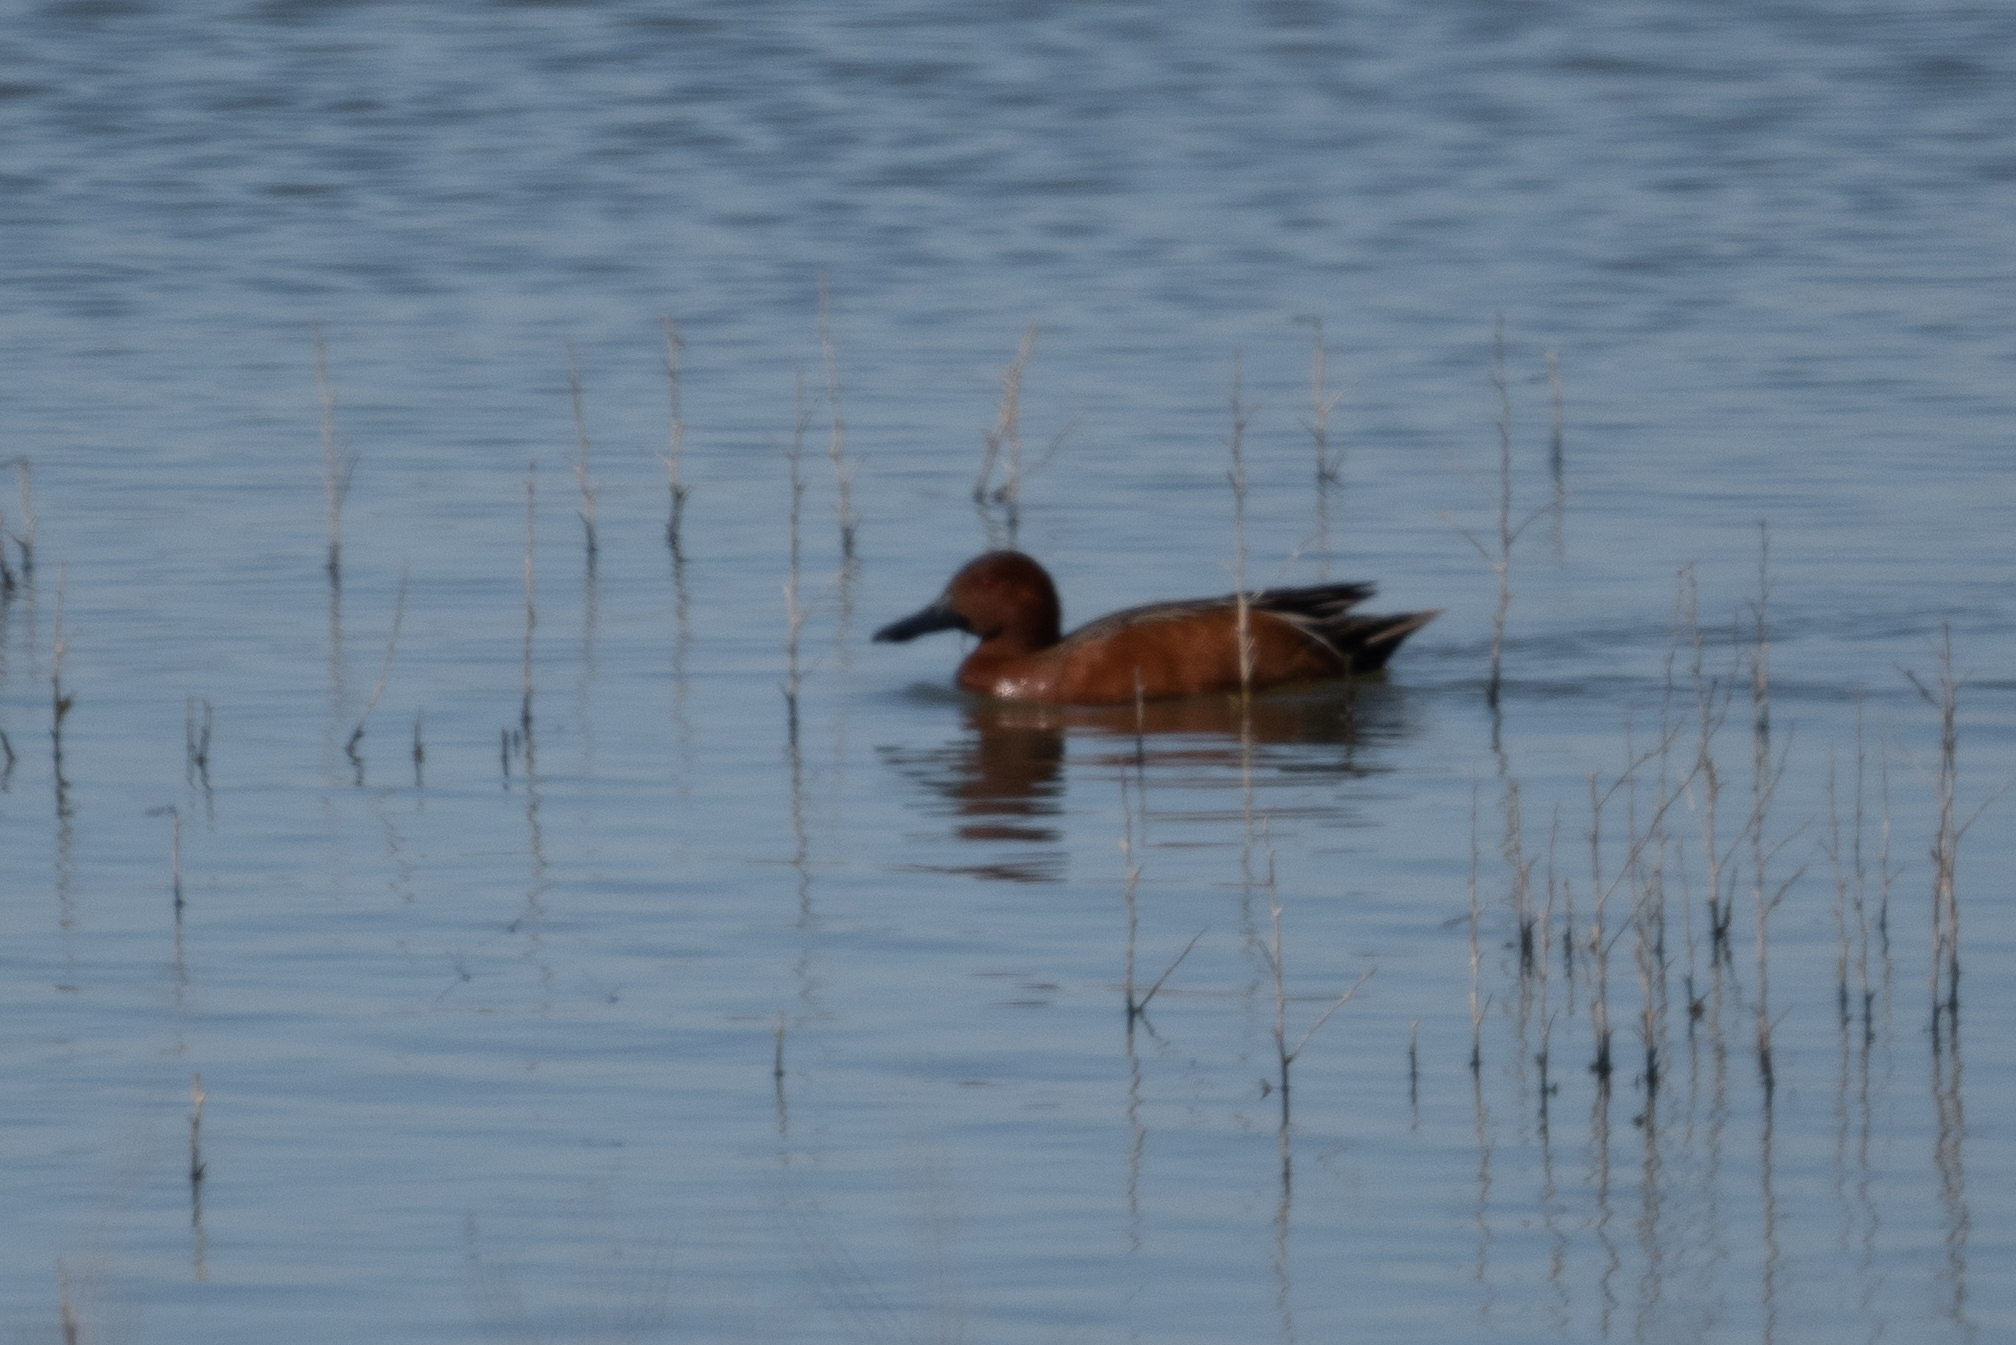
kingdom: Animalia
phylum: Chordata
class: Aves
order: Anseriformes
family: Anatidae
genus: Spatula
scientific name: Spatula cyanoptera
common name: Cinnamon teal
